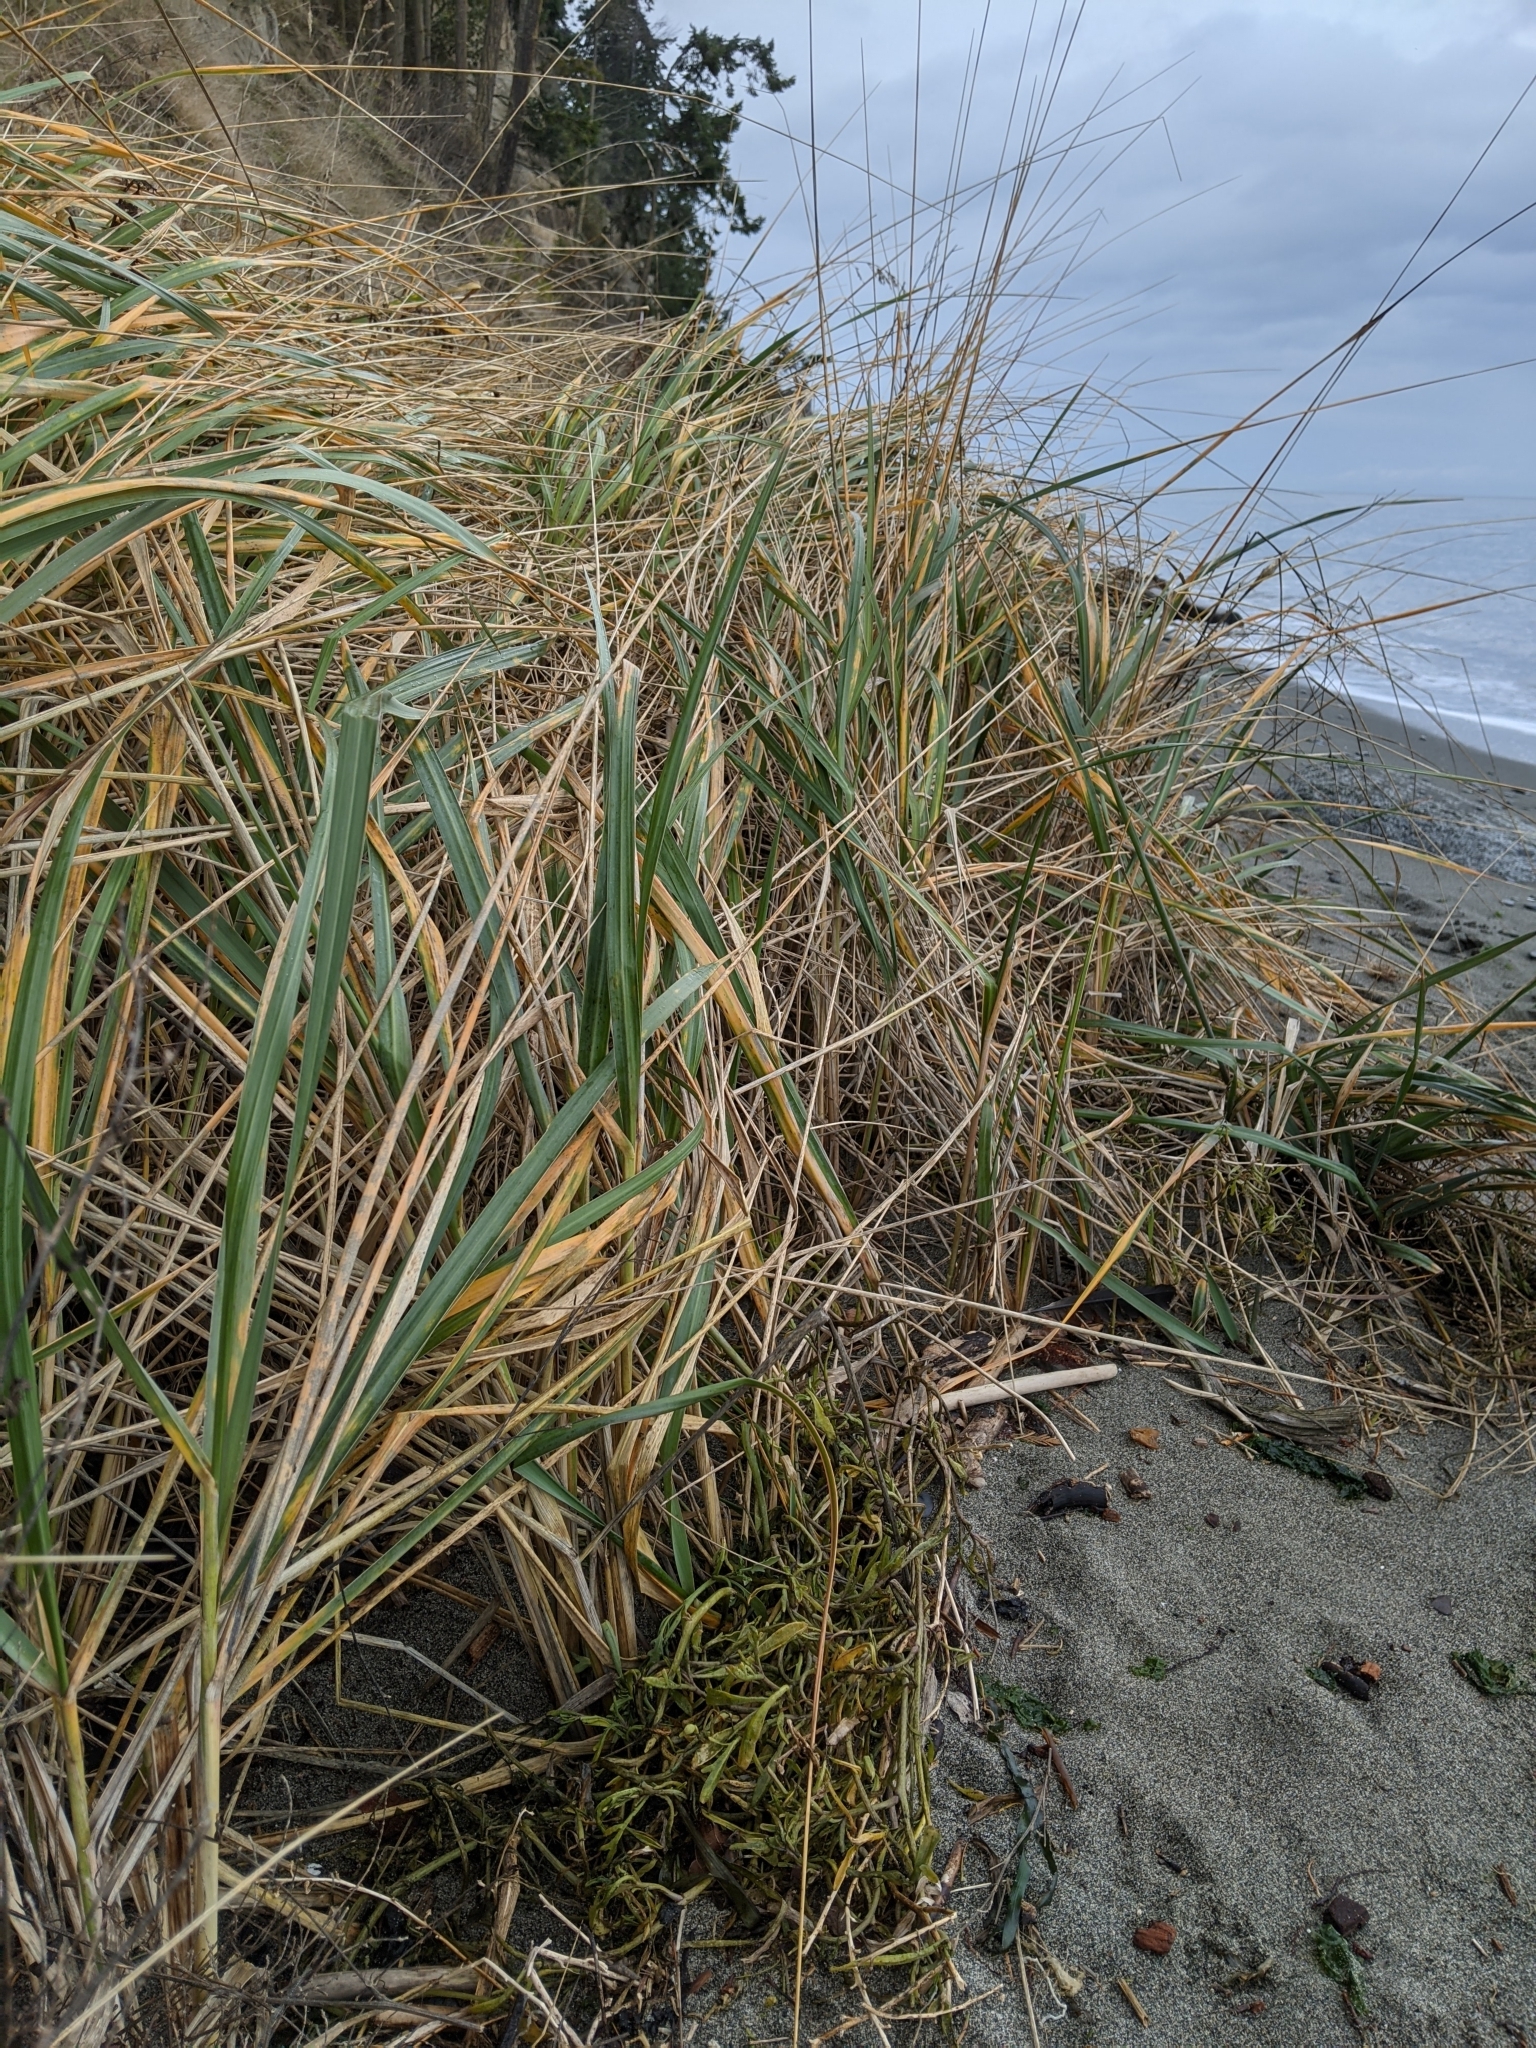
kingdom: Plantae
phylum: Tracheophyta
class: Liliopsida
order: Poales
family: Poaceae
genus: Leymus
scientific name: Leymus mollis
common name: American dune grass
